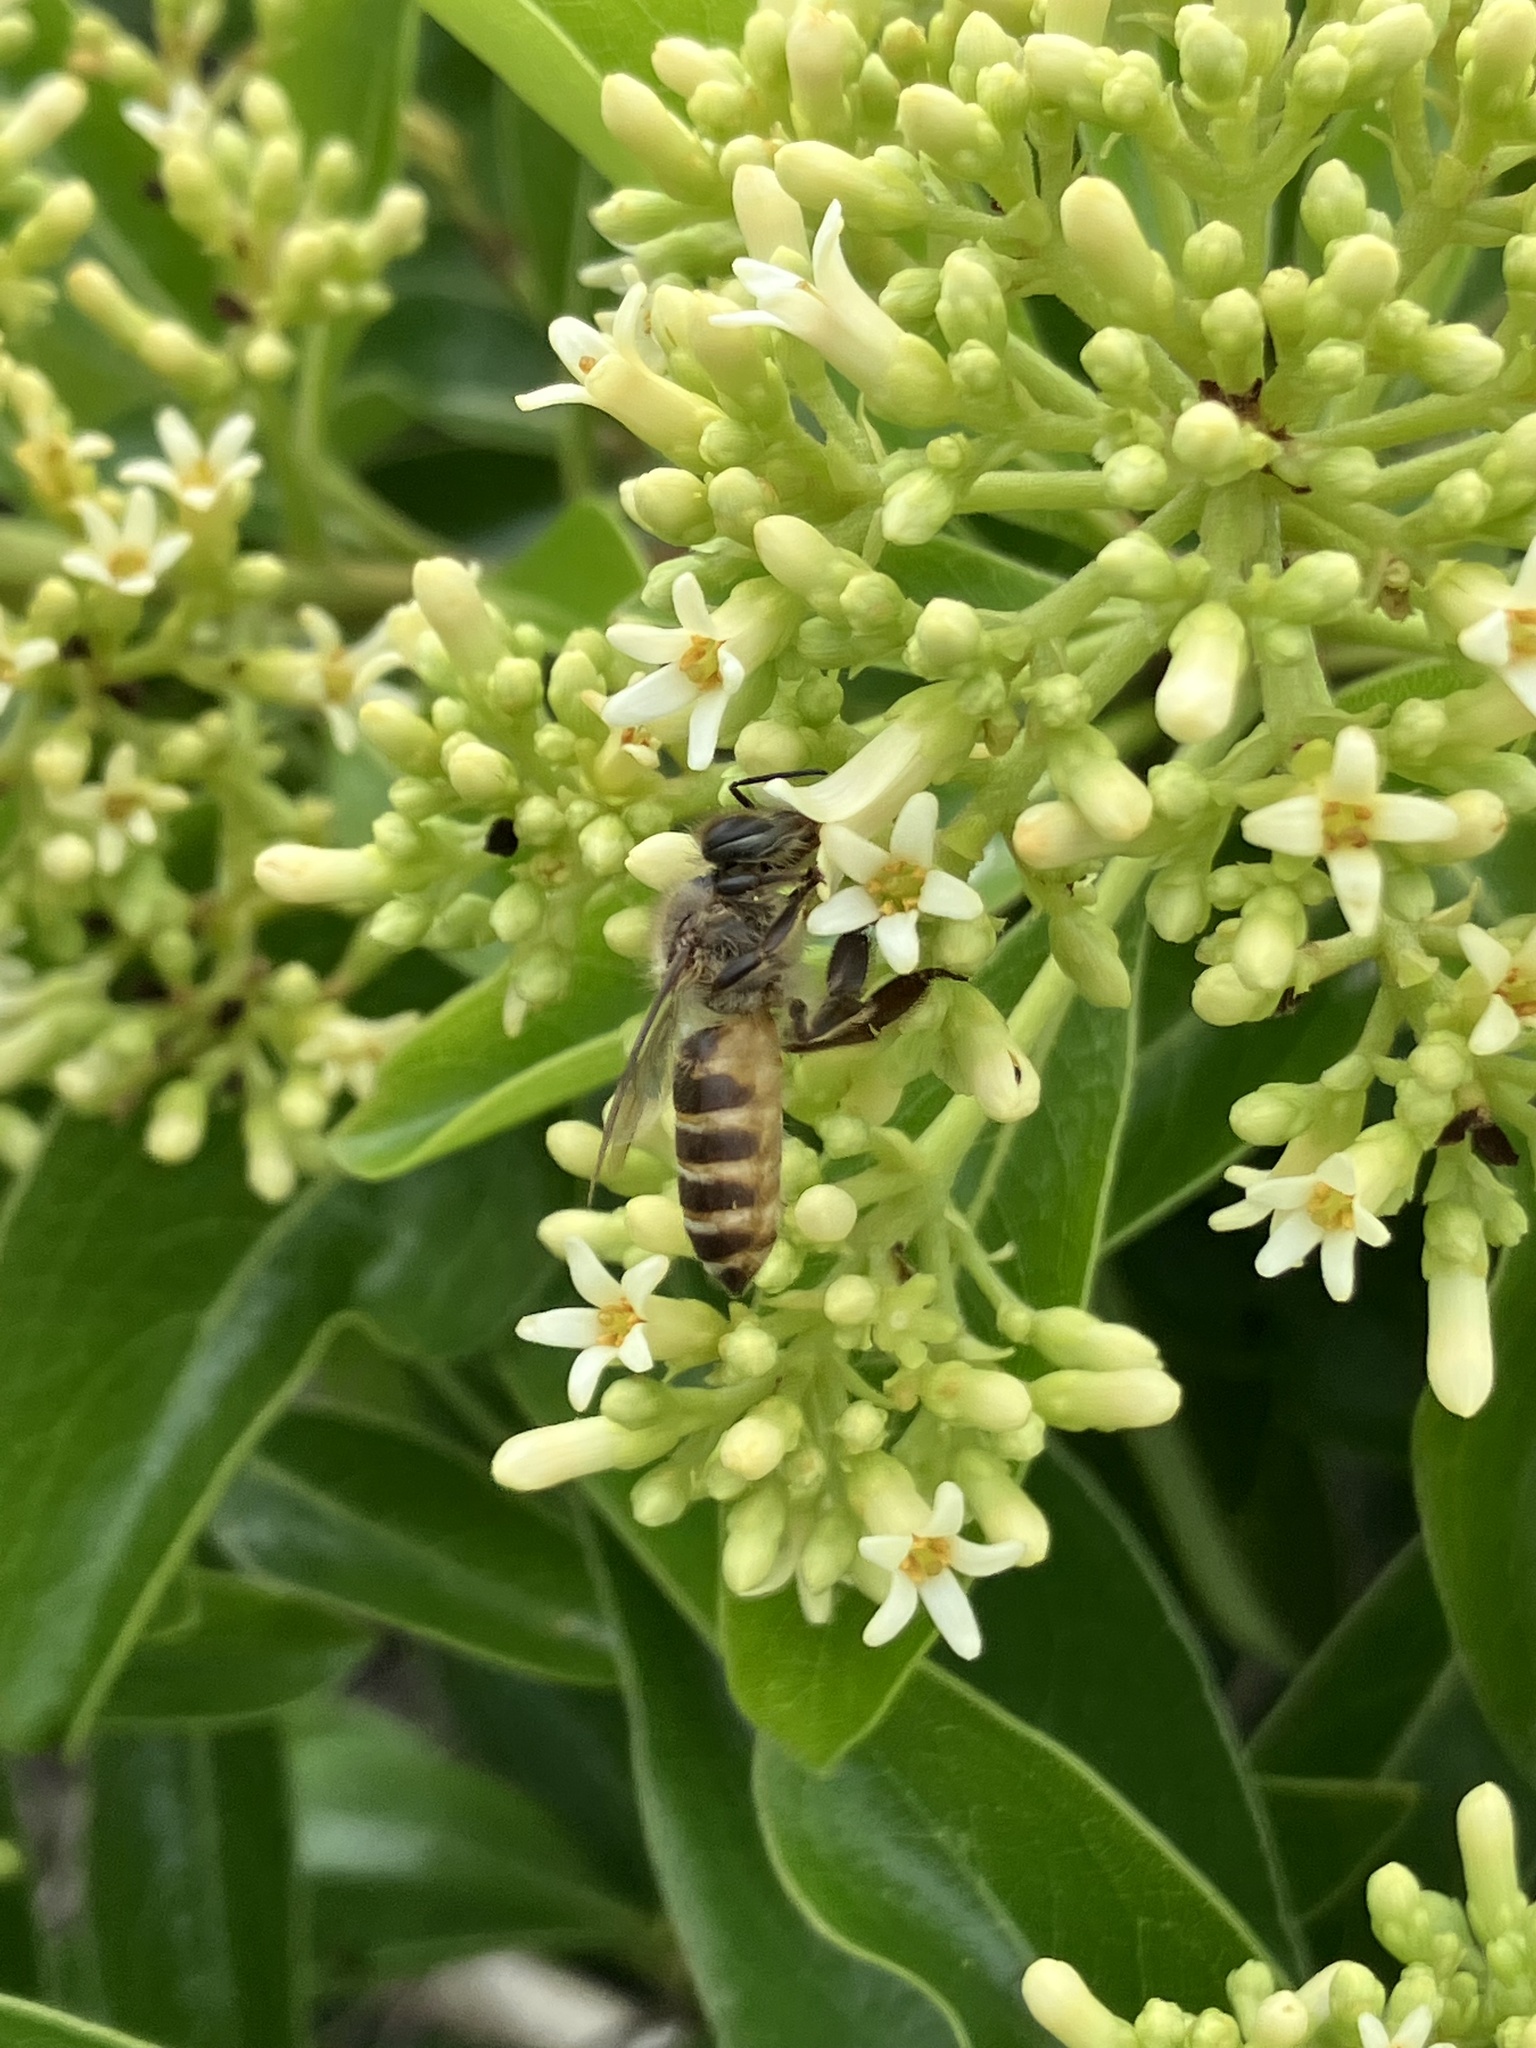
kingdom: Animalia
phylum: Arthropoda
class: Insecta
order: Hymenoptera
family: Apidae
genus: Apis
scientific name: Apis cerana
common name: Honey bee
